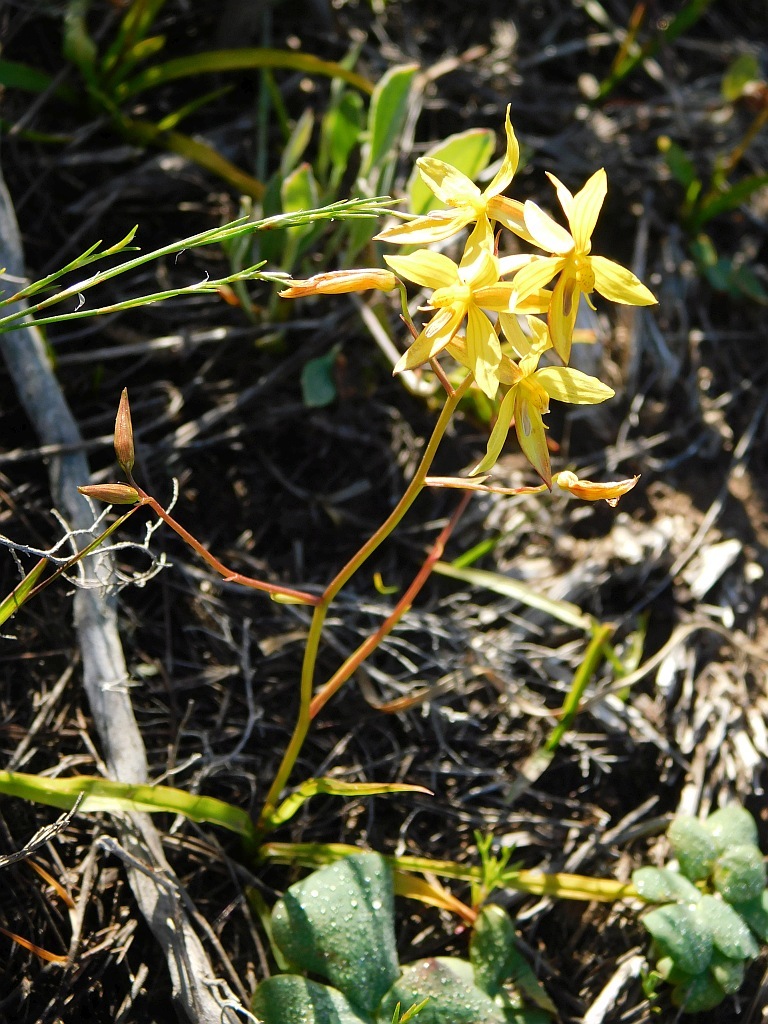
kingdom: Plantae
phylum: Tracheophyta
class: Liliopsida
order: Asparagales
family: Tecophilaeaceae
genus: Cyanella
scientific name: Cyanella lutea
